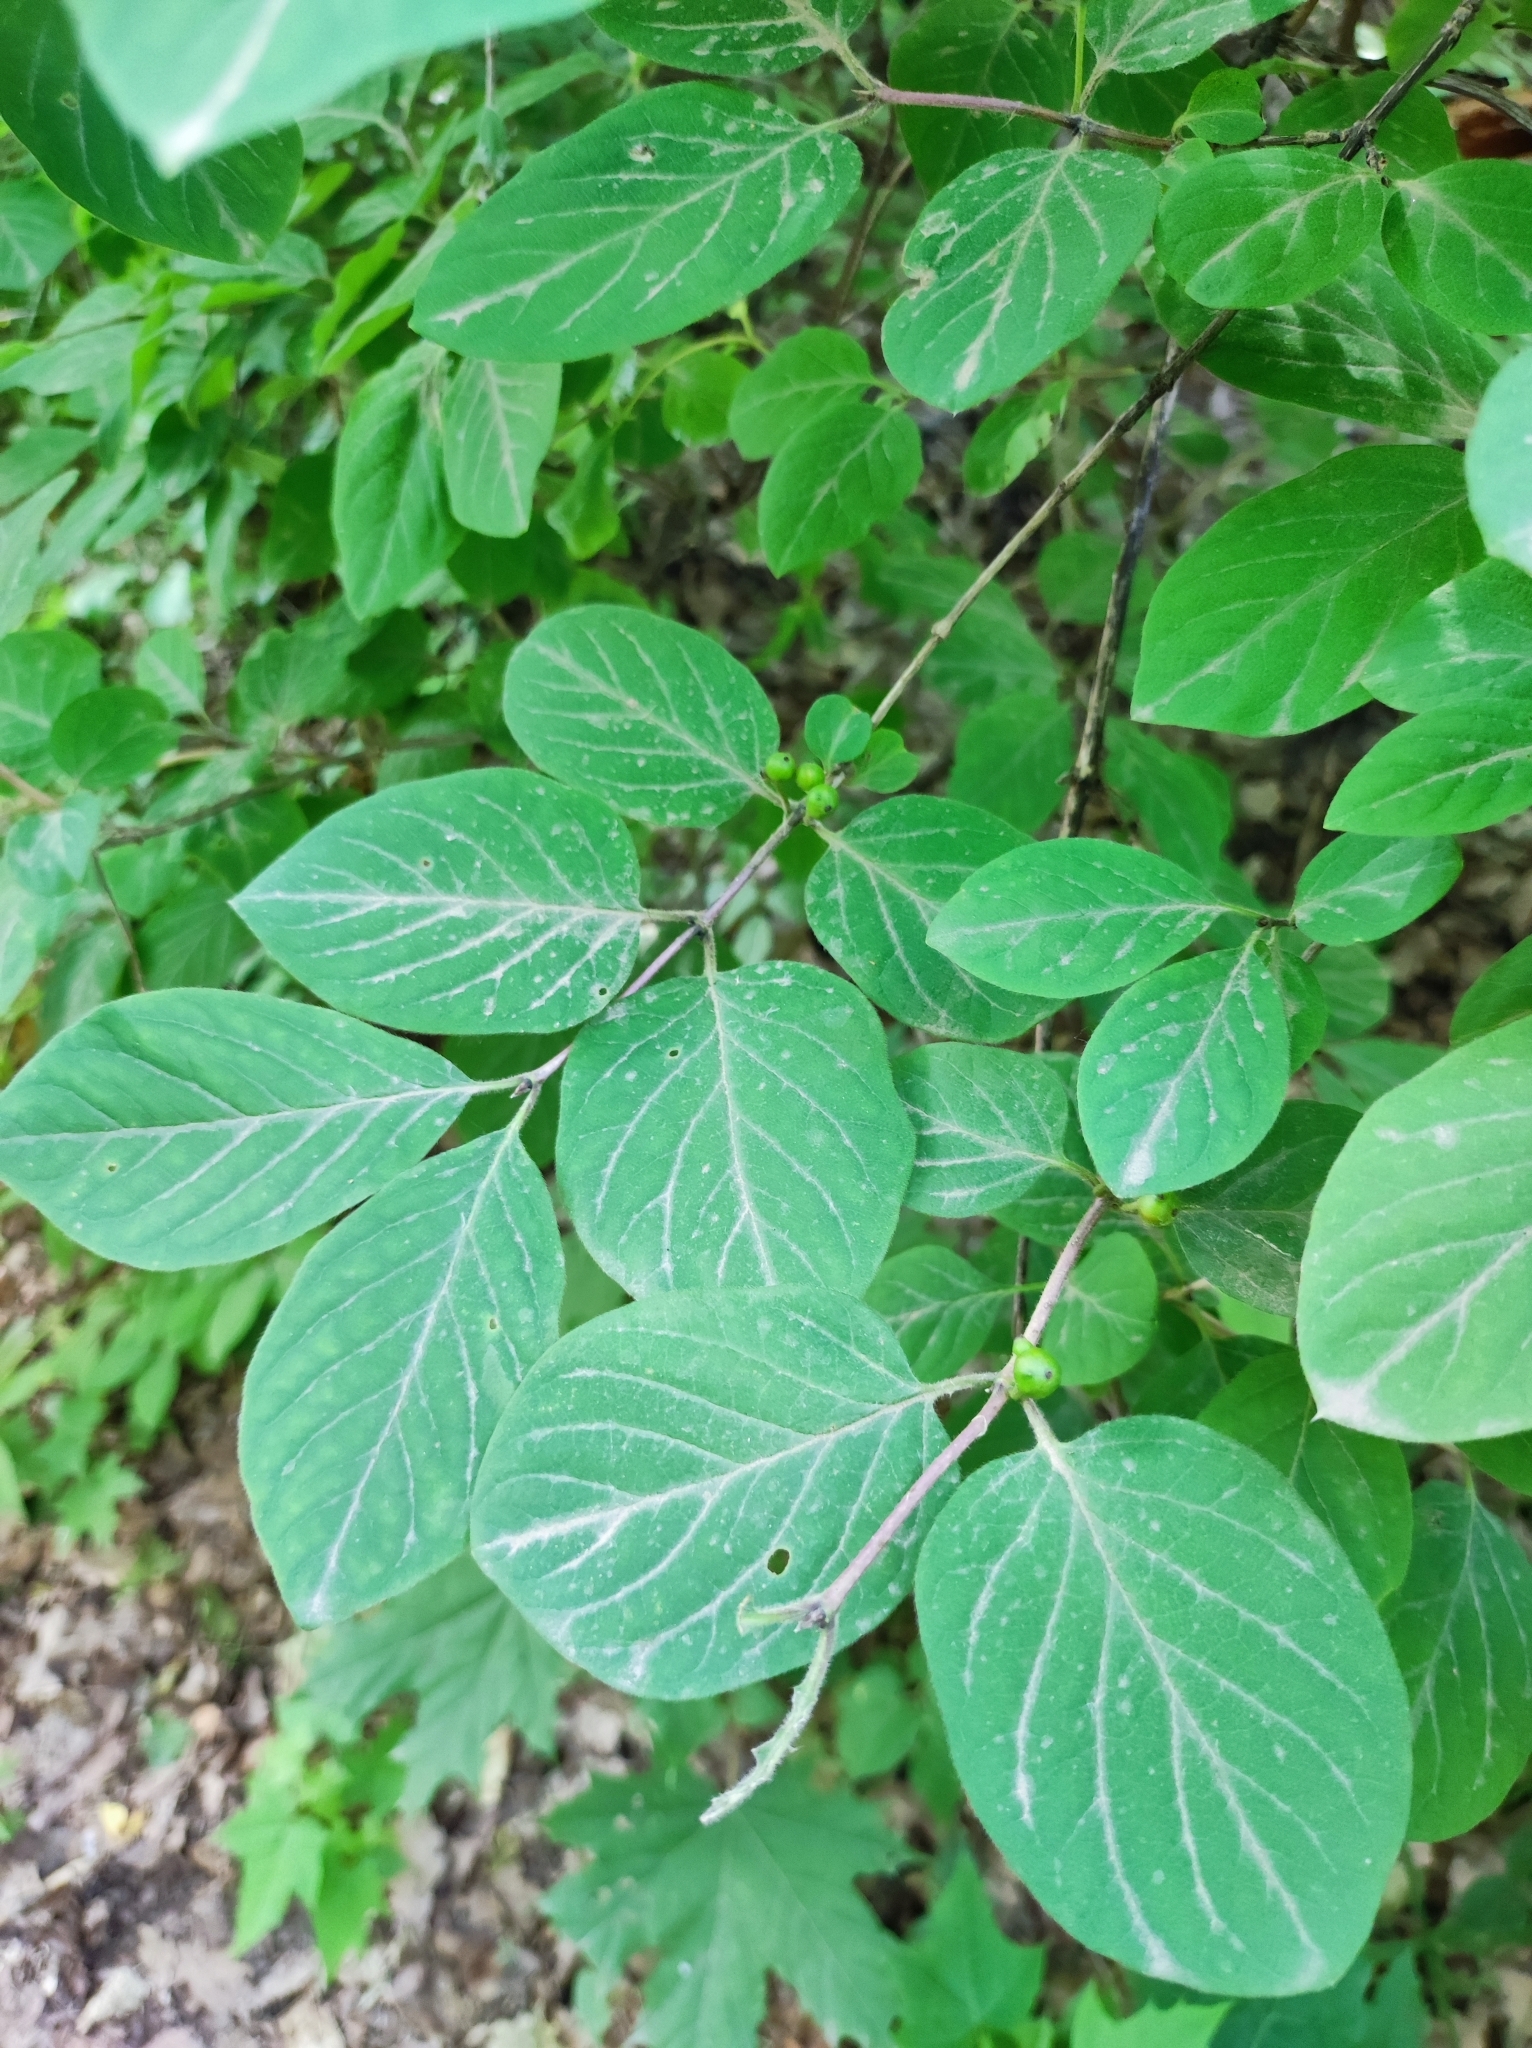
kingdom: Plantae
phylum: Tracheophyta
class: Magnoliopsida
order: Dipsacales
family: Caprifoliaceae
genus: Lonicera
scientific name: Lonicera xylosteum
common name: Fly honeysuckle
